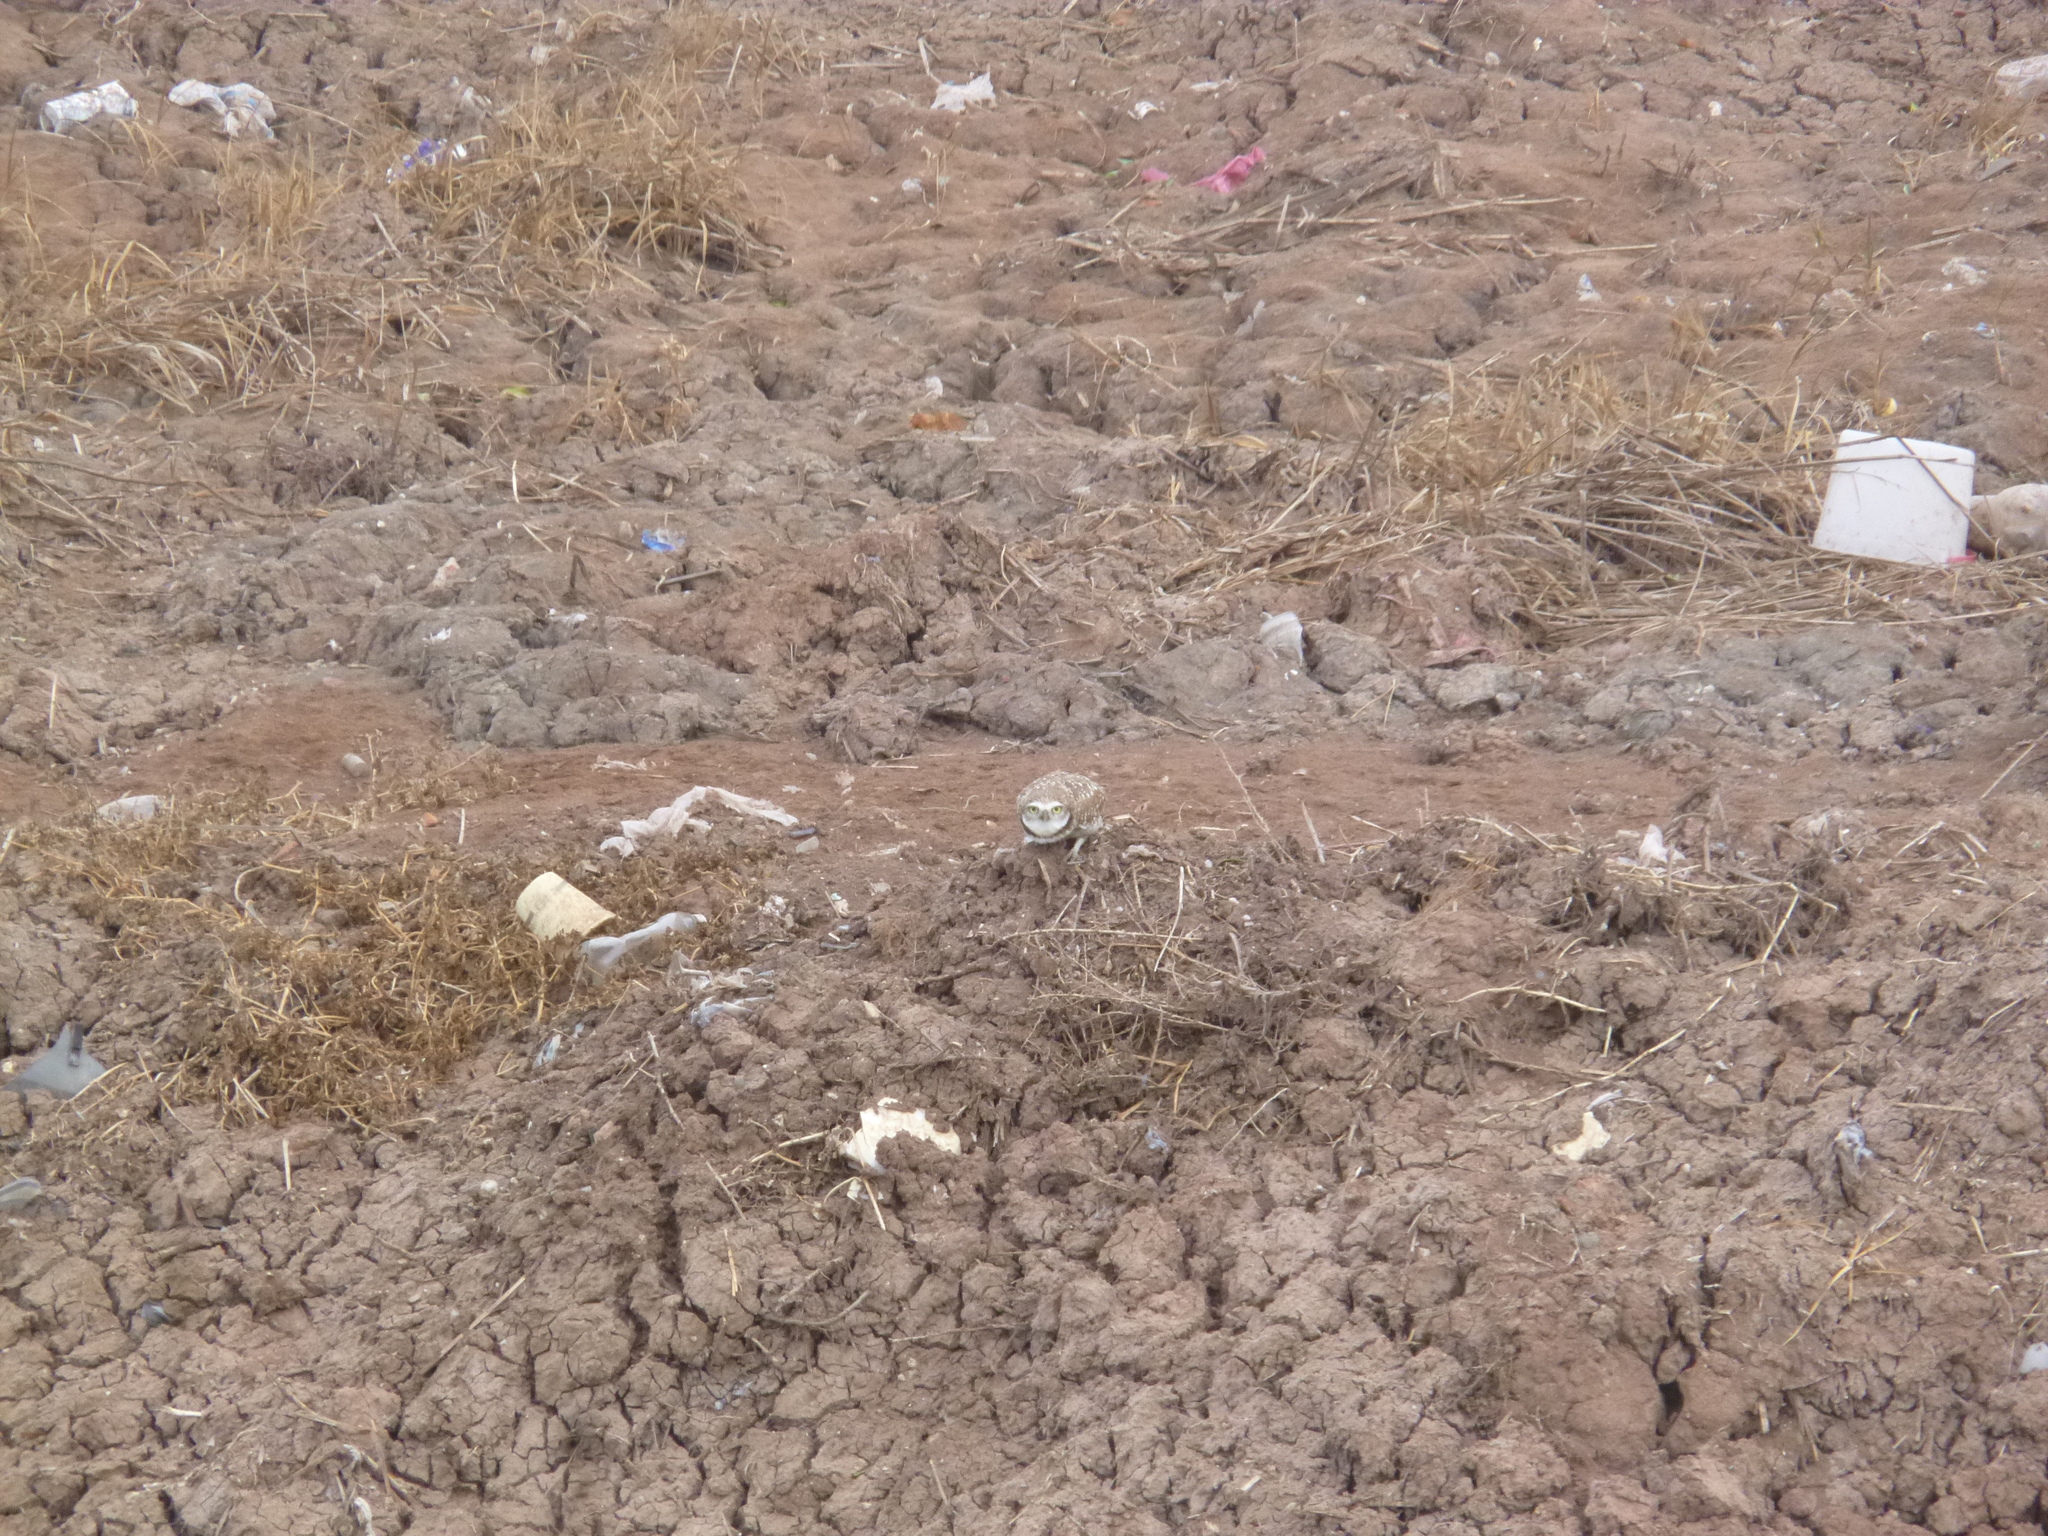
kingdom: Animalia
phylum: Chordata
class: Aves
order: Strigiformes
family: Strigidae
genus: Athene
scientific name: Athene cunicularia
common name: Burrowing owl
